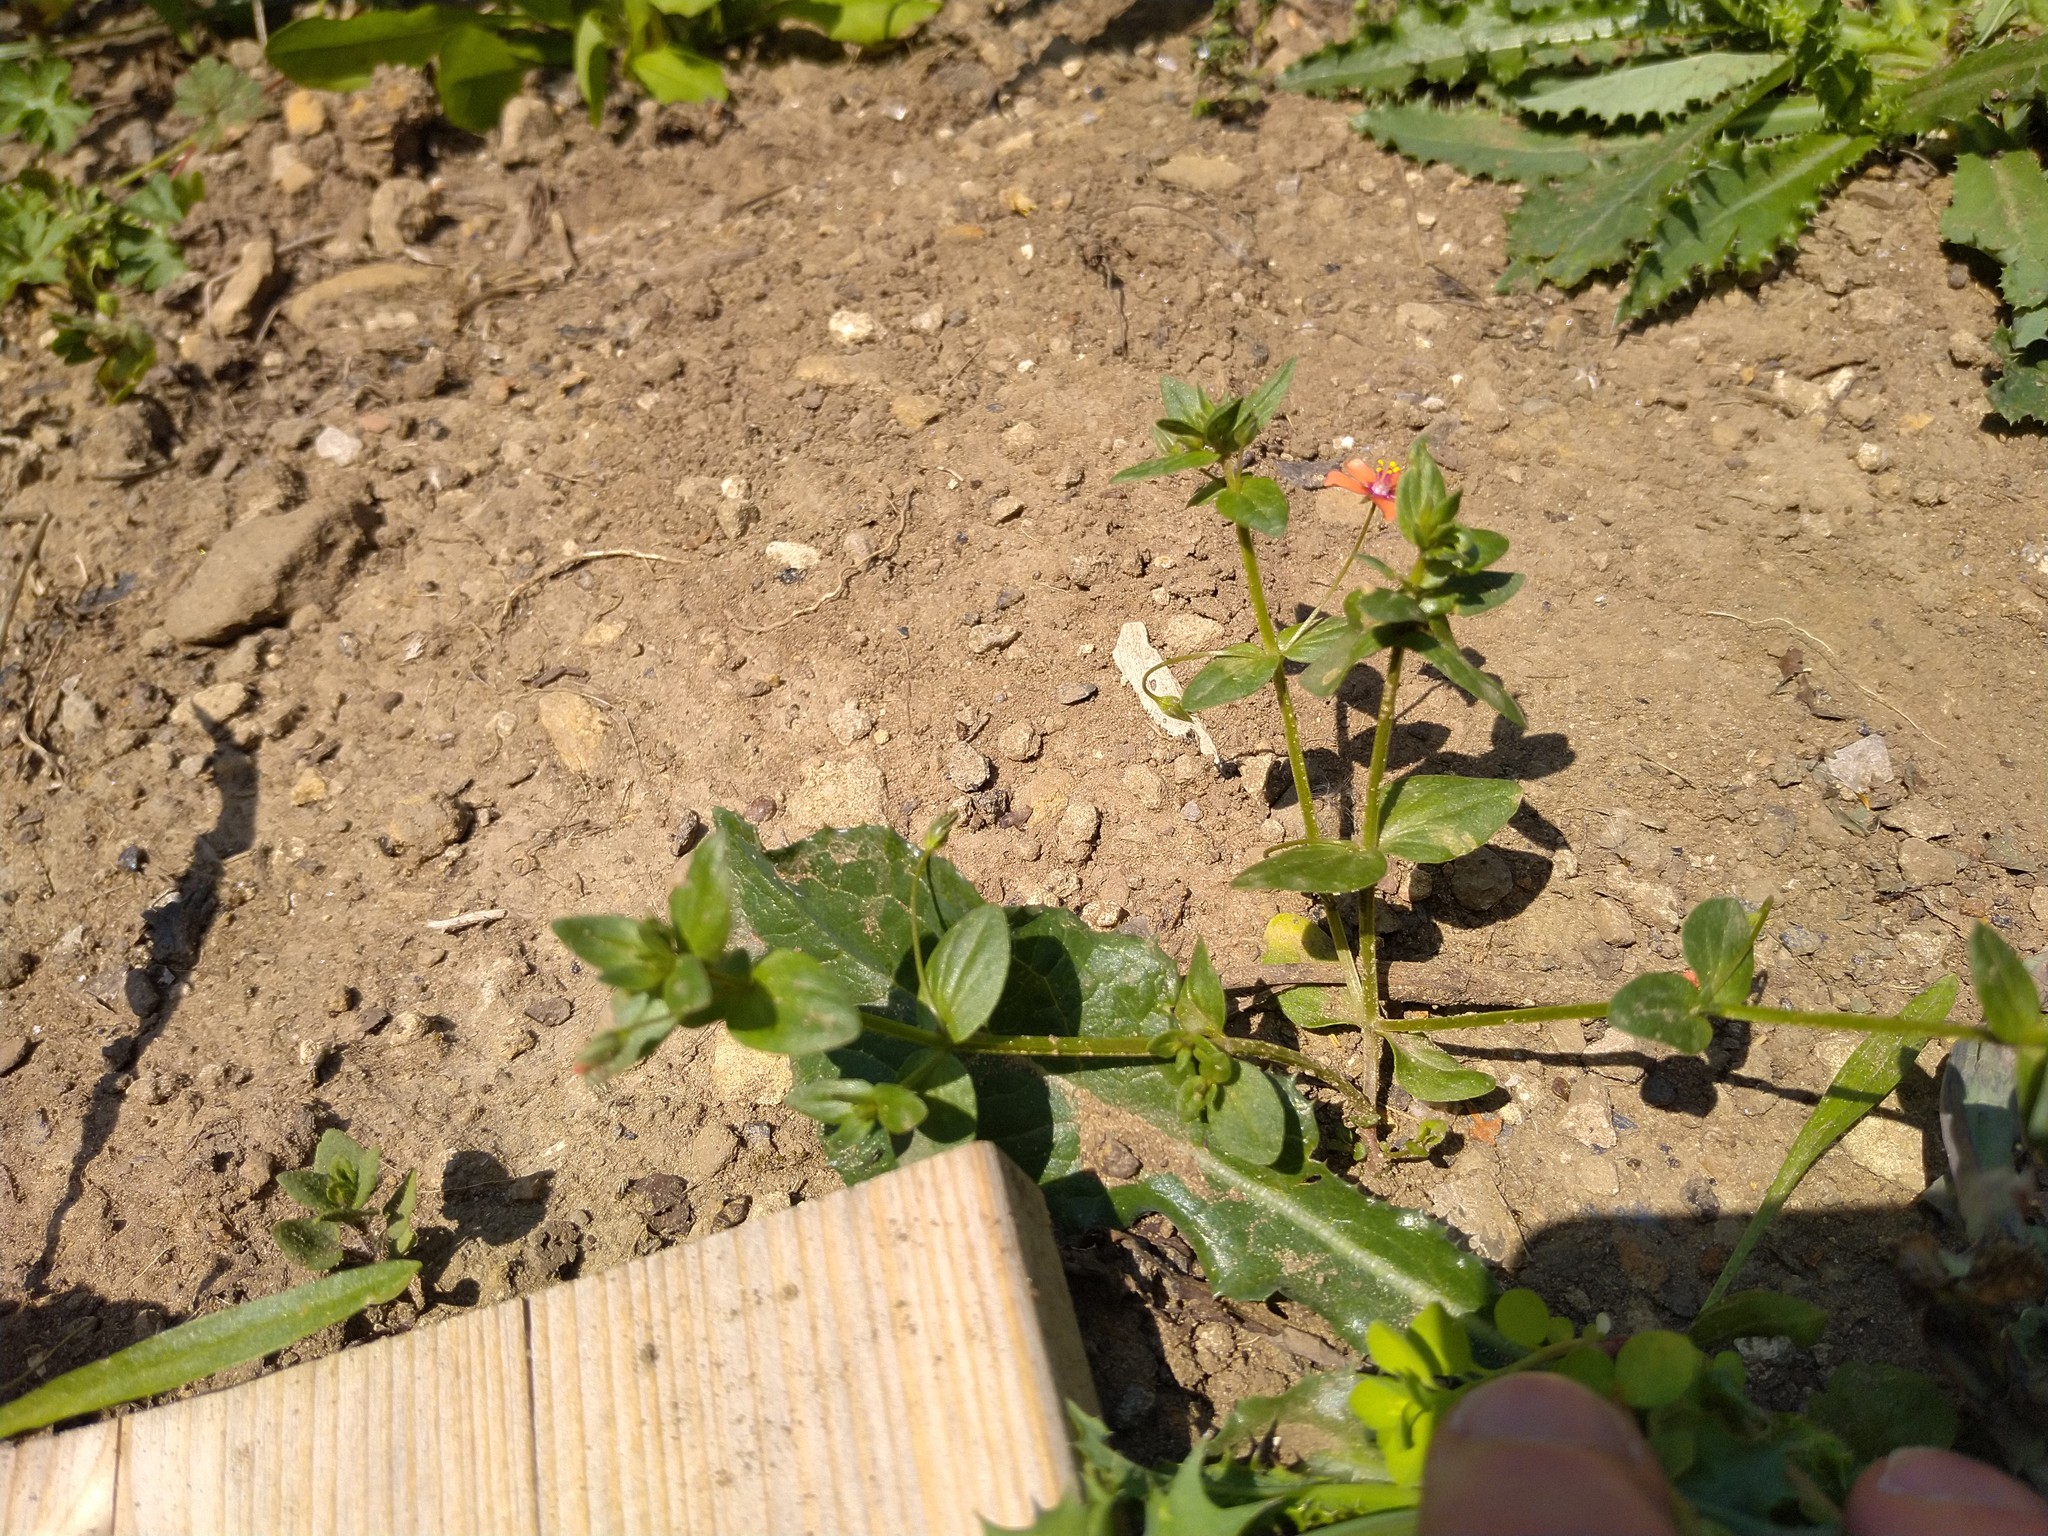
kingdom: Plantae
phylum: Tracheophyta
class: Magnoliopsida
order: Ericales
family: Primulaceae
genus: Lysimachia
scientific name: Lysimachia arvensis
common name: Scarlet pimpernel
